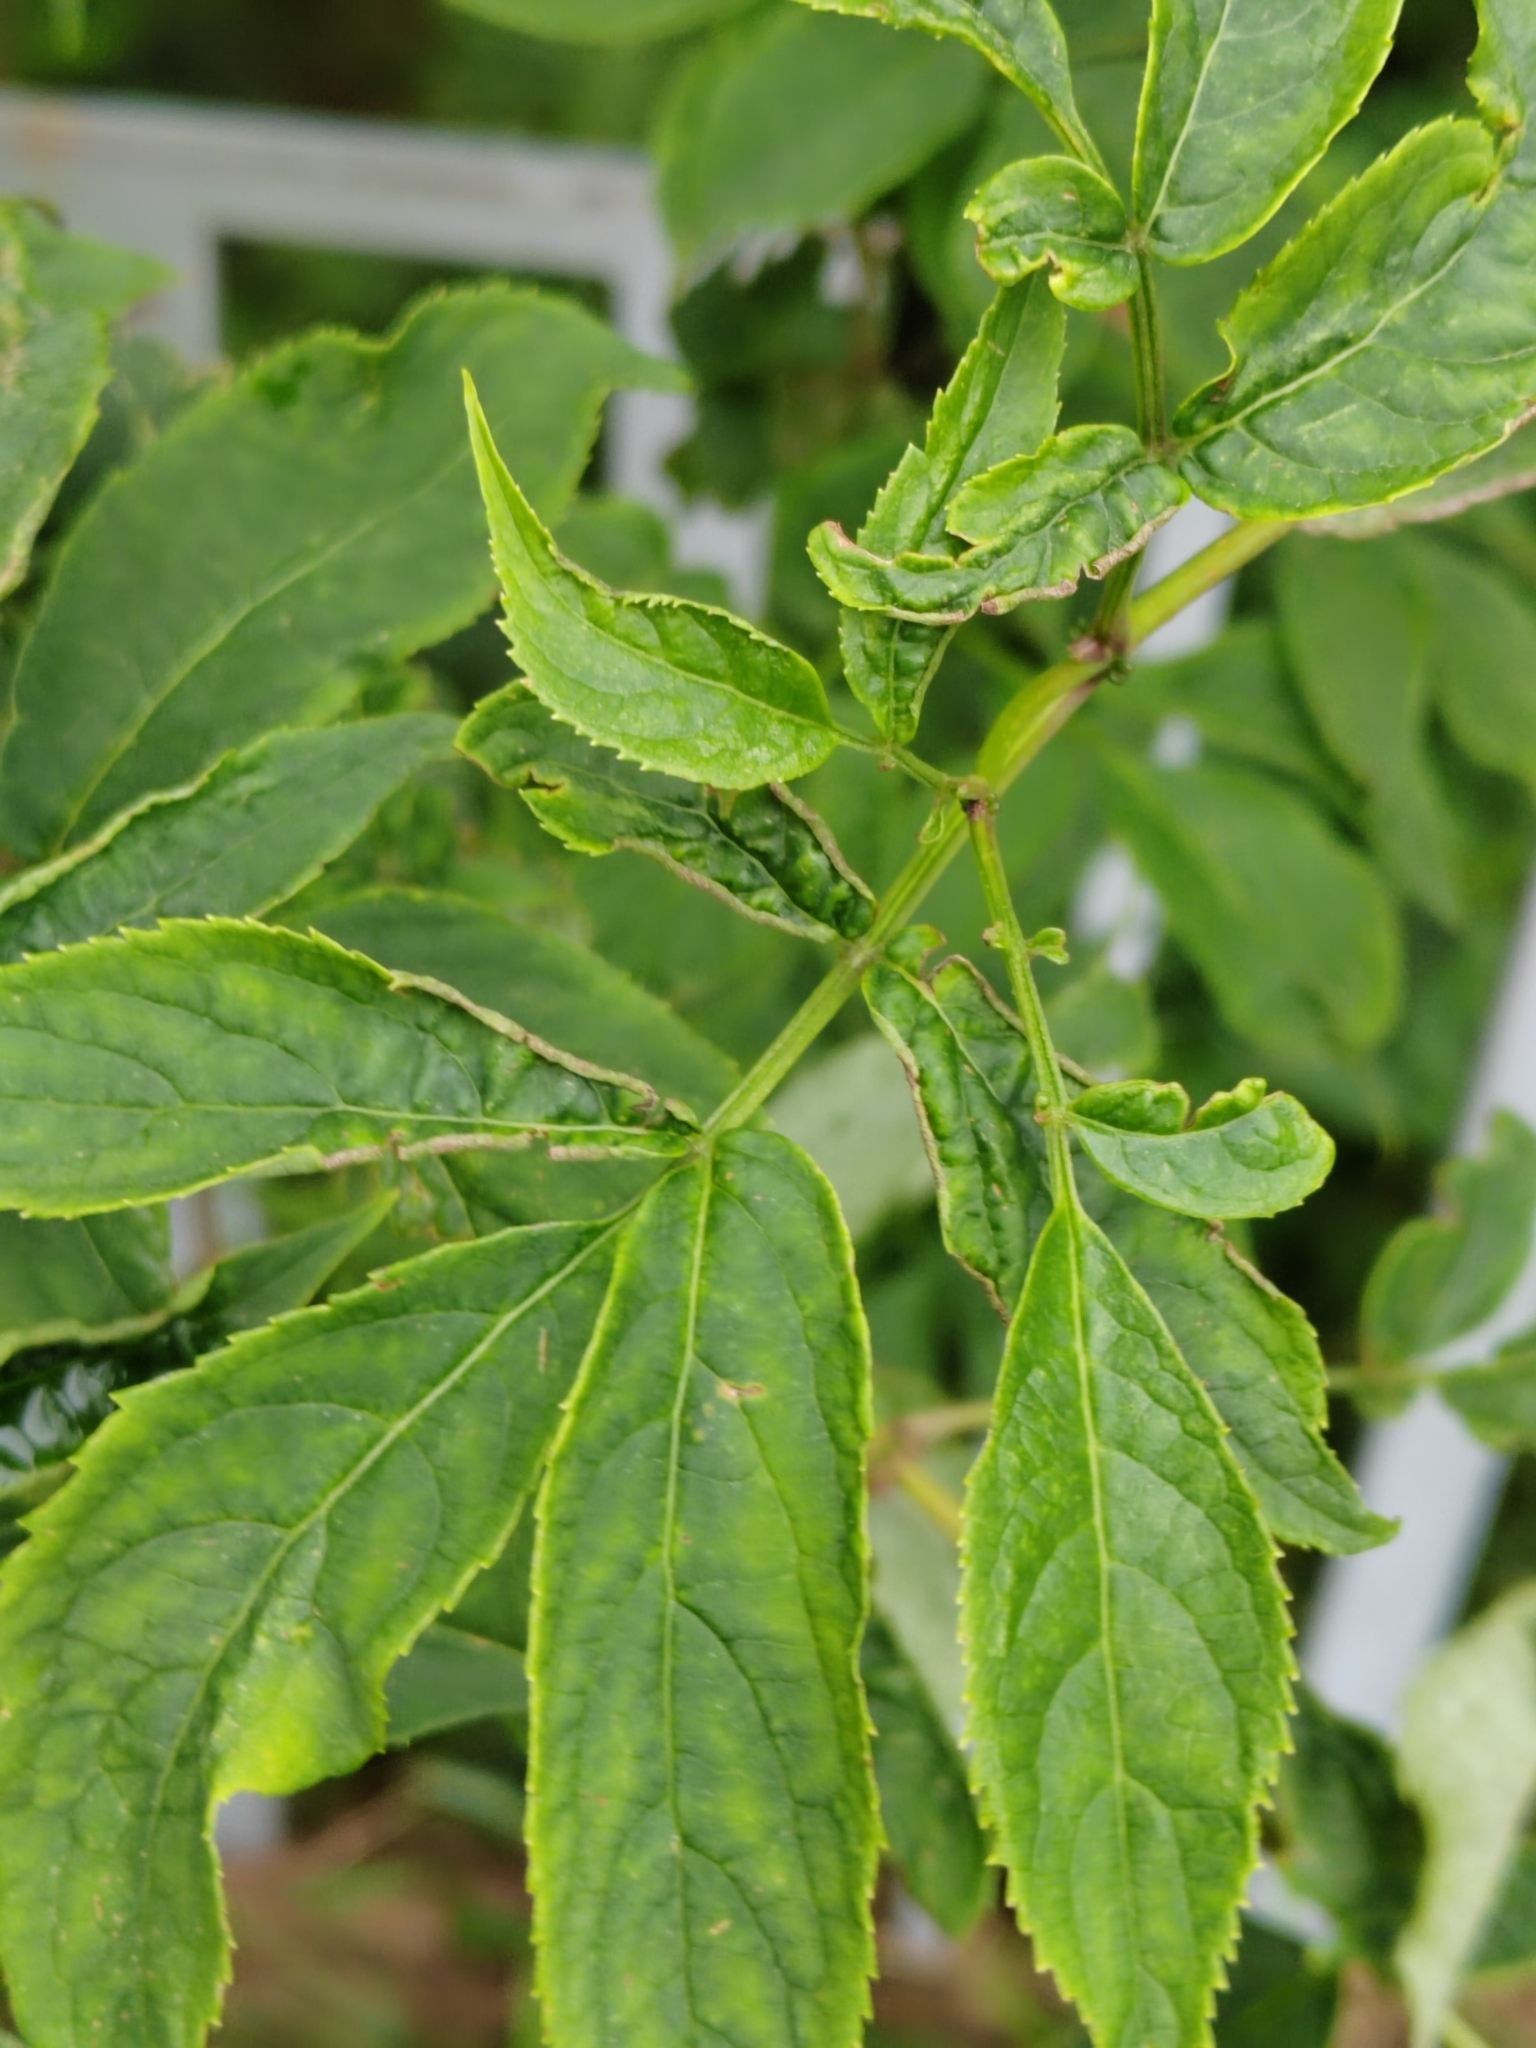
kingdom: Plantae
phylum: Tracheophyta
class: Magnoliopsida
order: Dipsacales
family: Viburnaceae
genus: Sambucus
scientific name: Sambucus racemosa
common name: Red-berried elder
